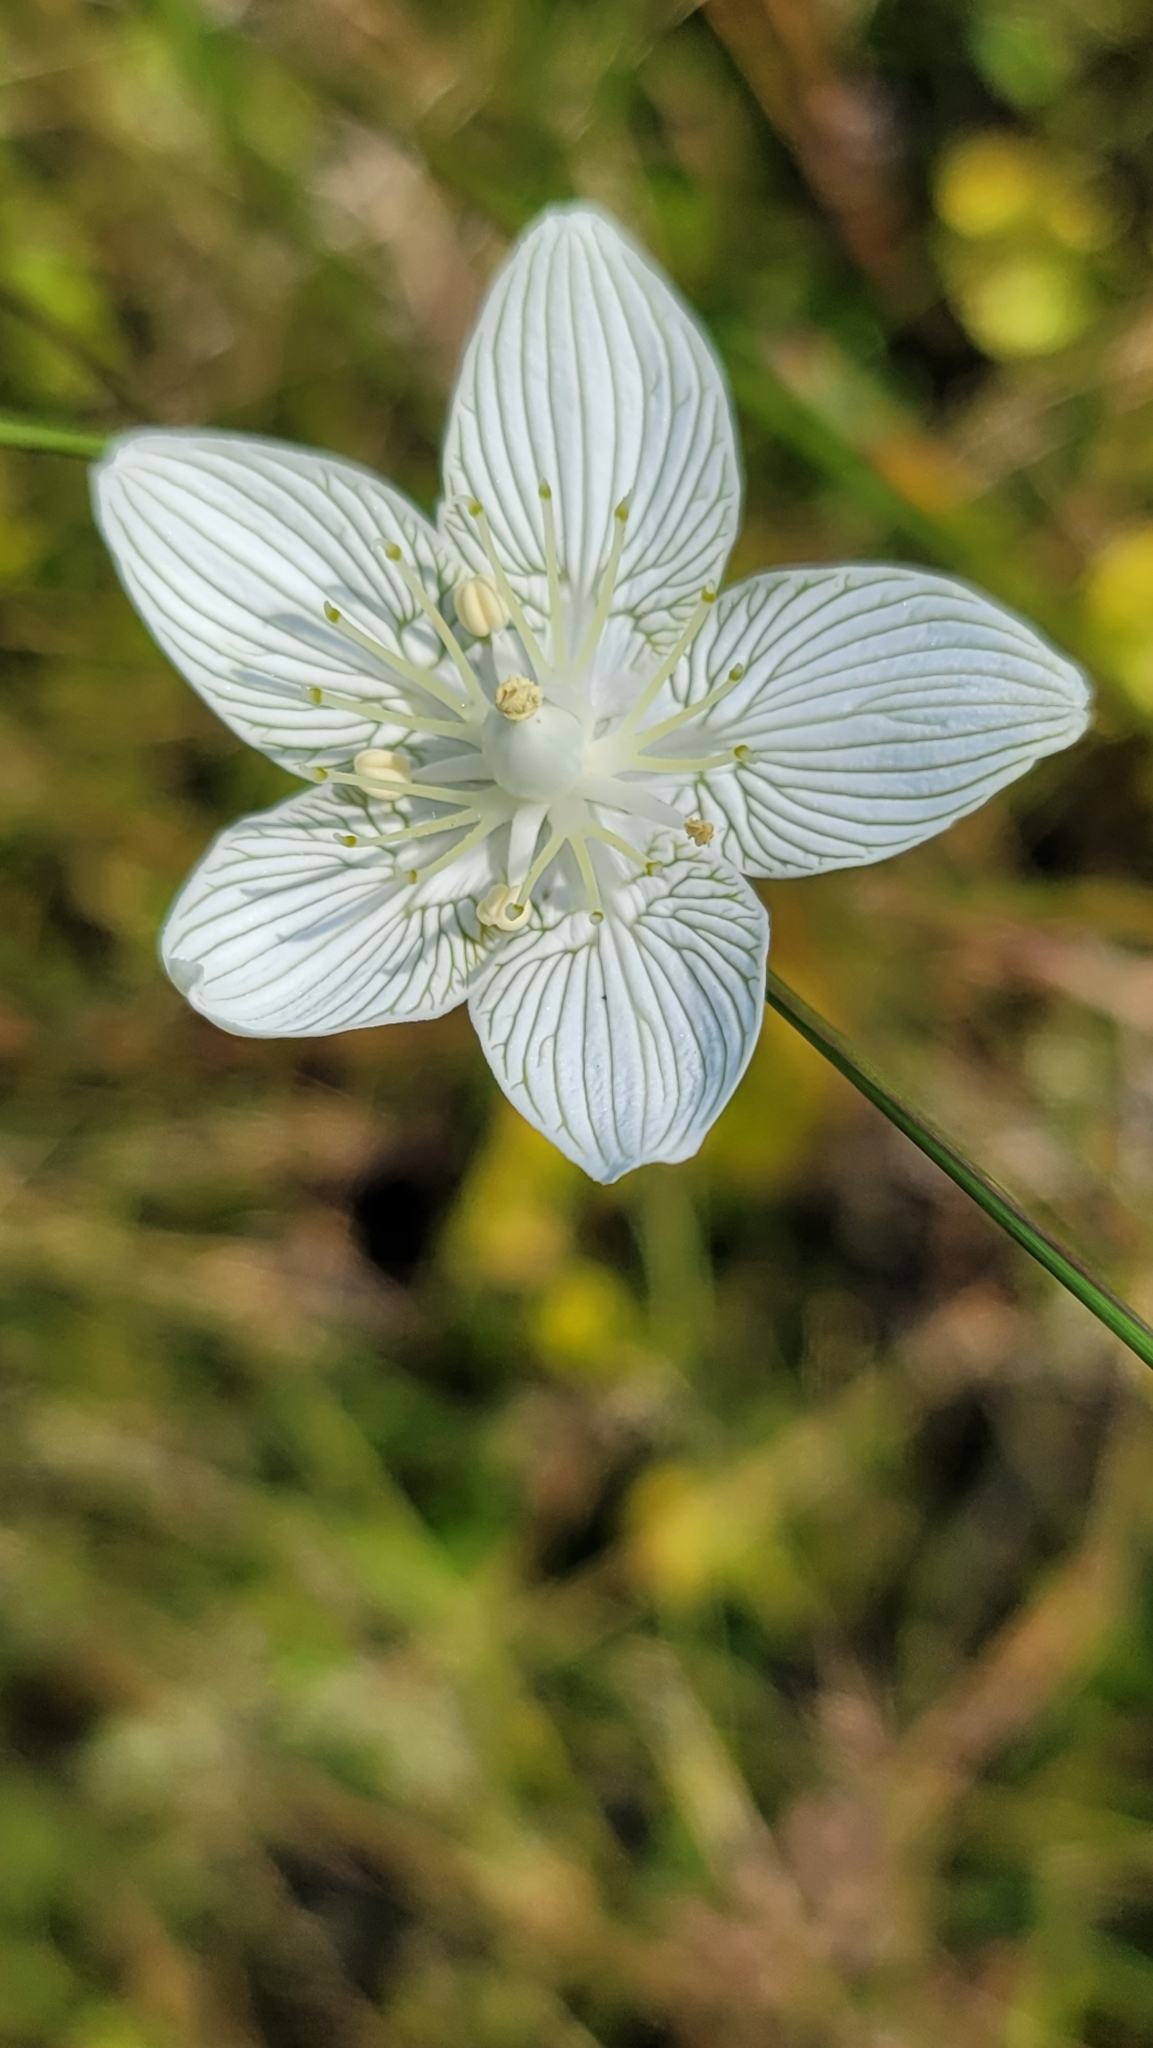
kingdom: Plantae
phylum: Tracheophyta
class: Magnoliopsida
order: Celastrales
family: Parnassiaceae
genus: Parnassia
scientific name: Parnassia caroliniana
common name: Carolina grass of parnassus
